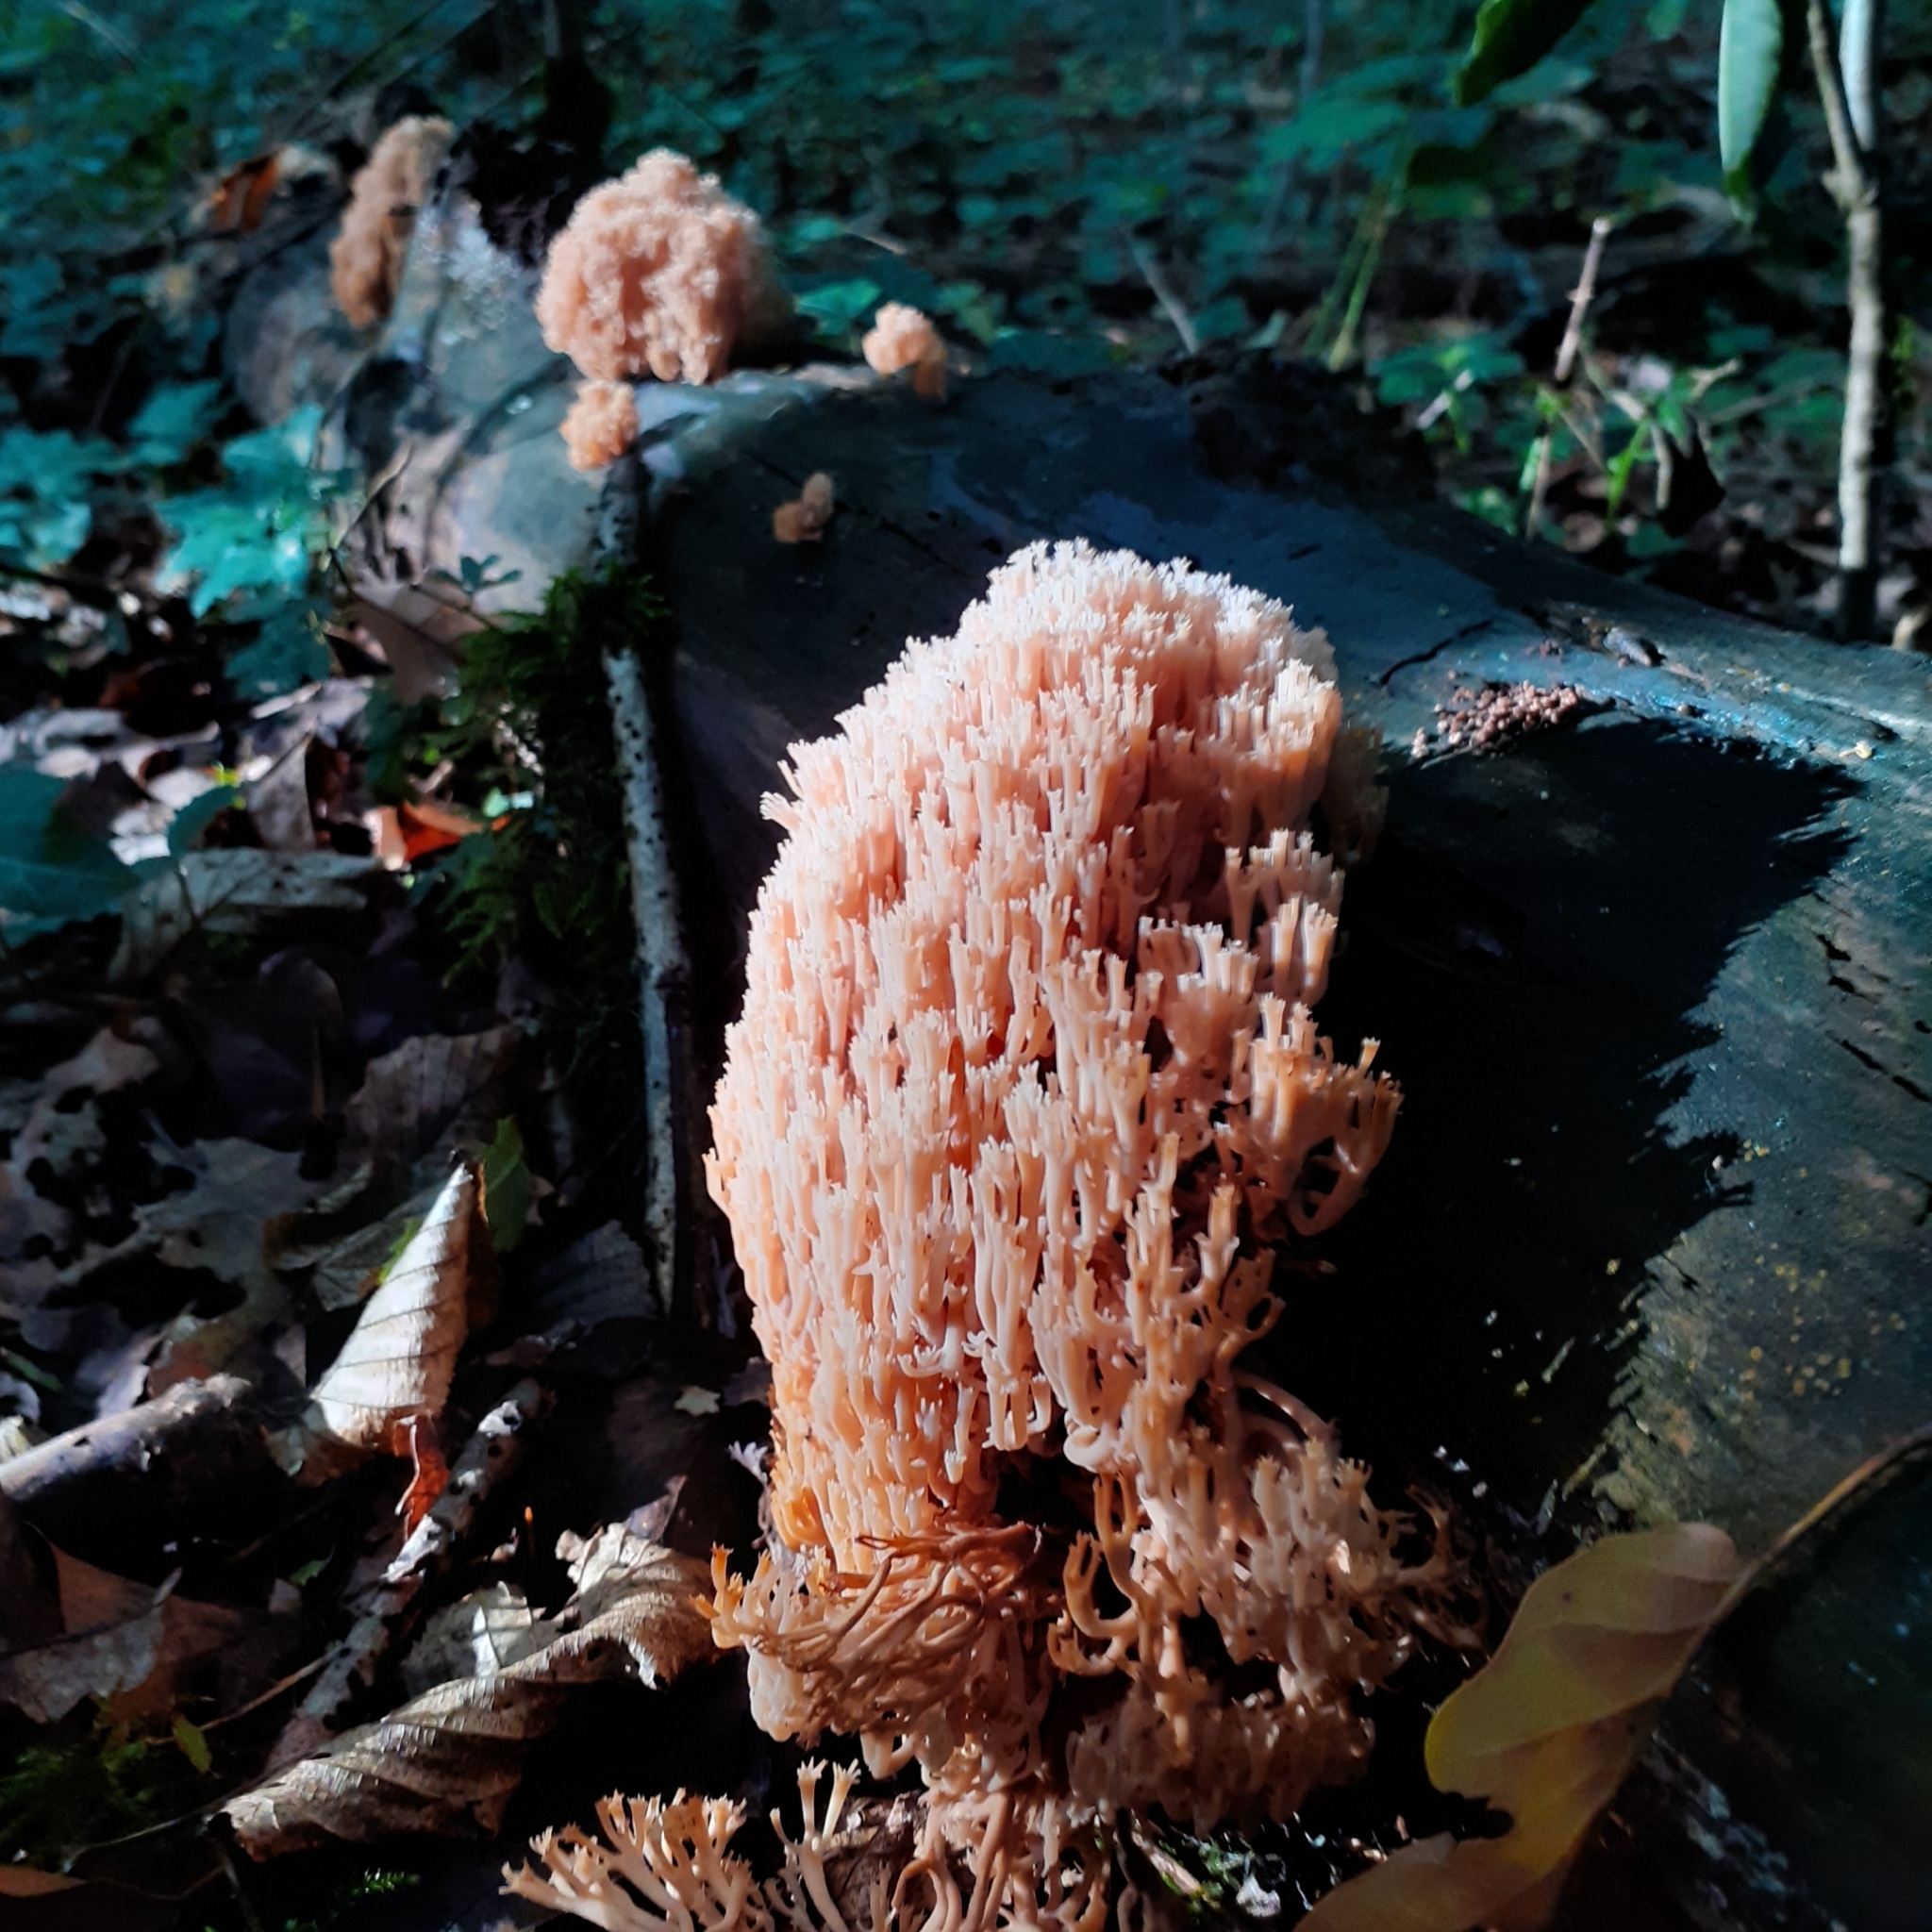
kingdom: Fungi
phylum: Basidiomycota
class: Agaricomycetes
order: Russulales
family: Auriscalpiaceae
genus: Artomyces
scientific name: Artomyces pyxidatus
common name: Crown-tipped coral fungus
